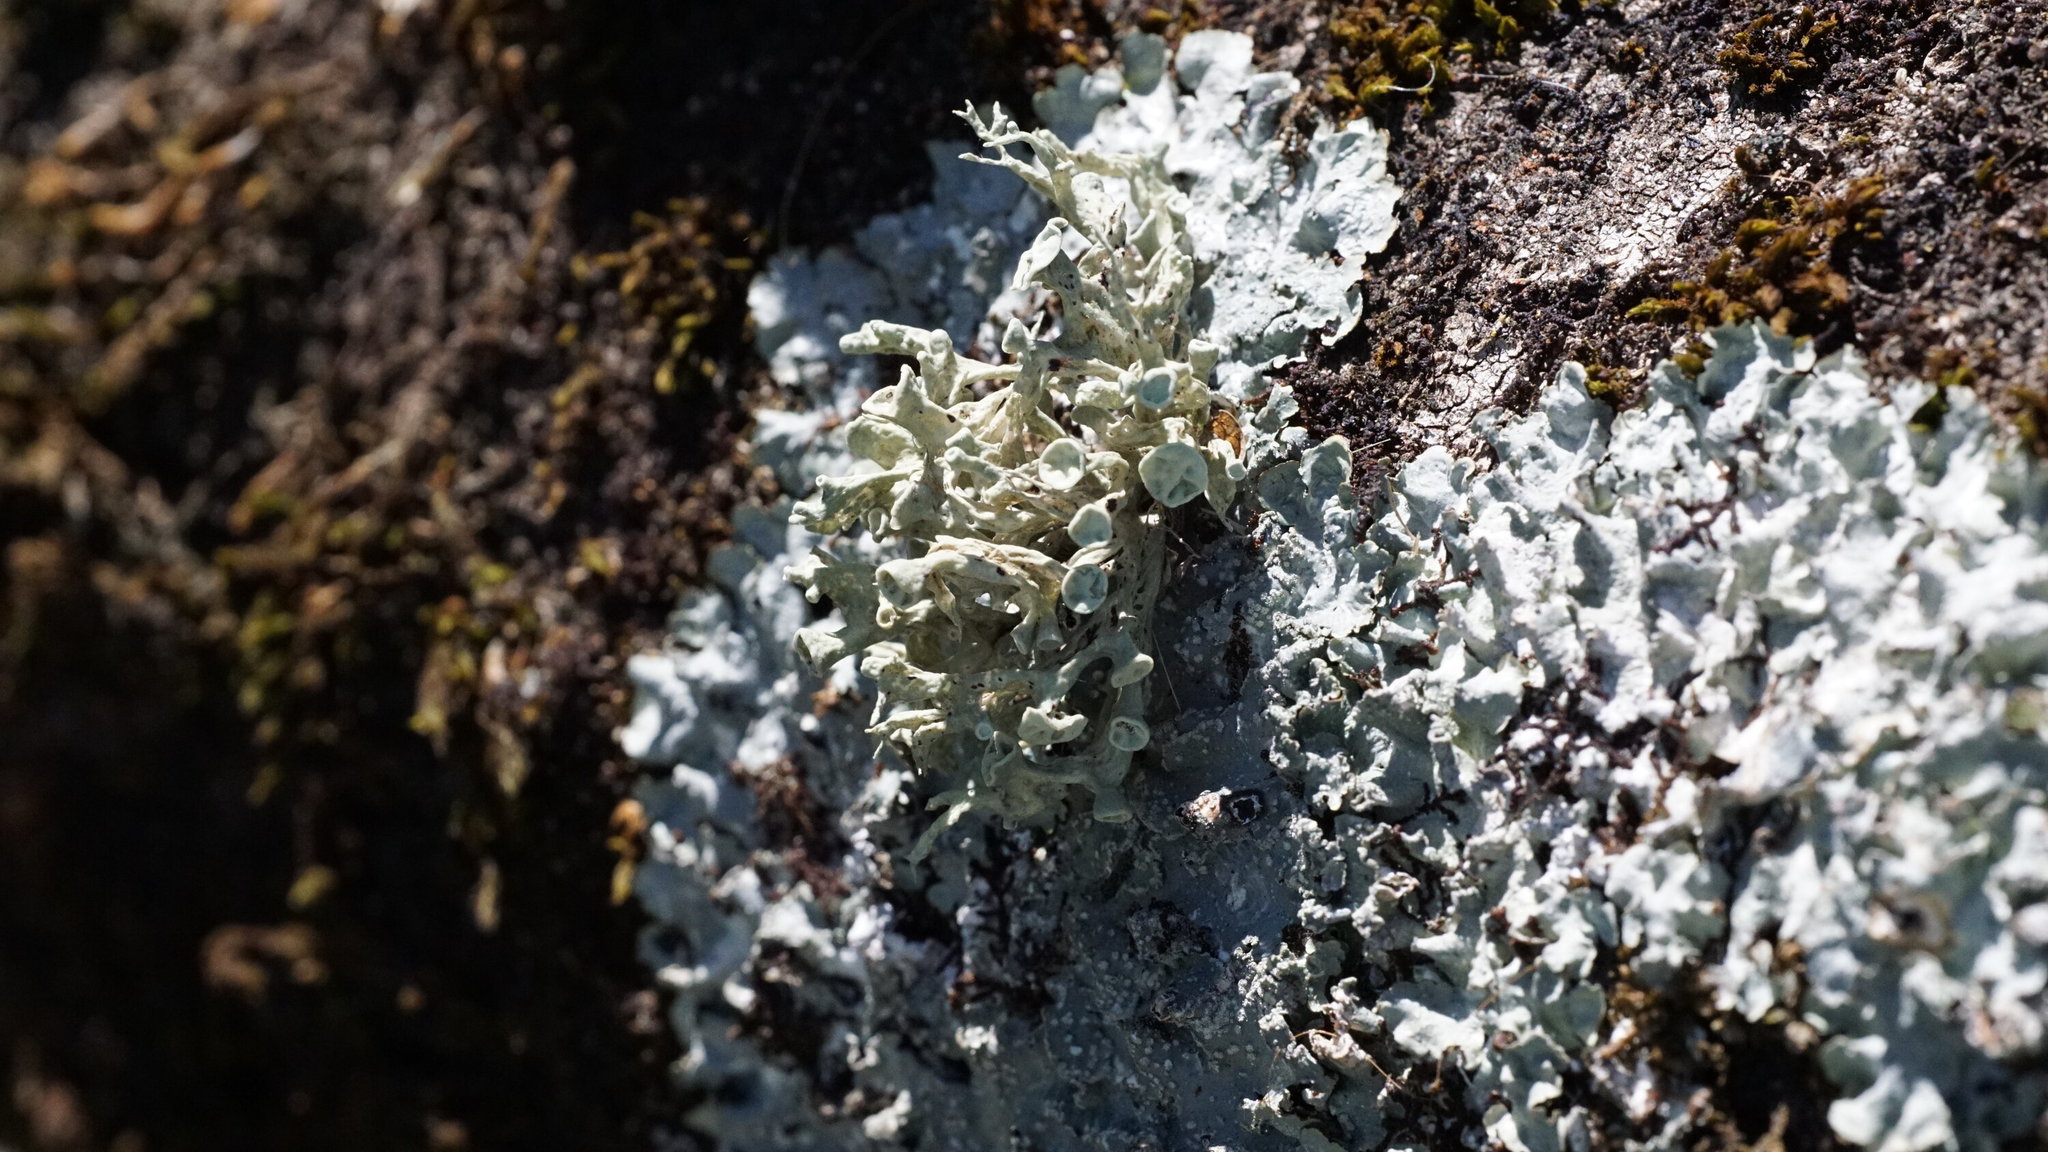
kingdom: Fungi
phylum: Ascomycota
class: Lecanoromycetes
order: Lecanorales
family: Ramalinaceae
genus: Ramalina
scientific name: Ramalina fastigiata
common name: Dotted ribbon lichen
